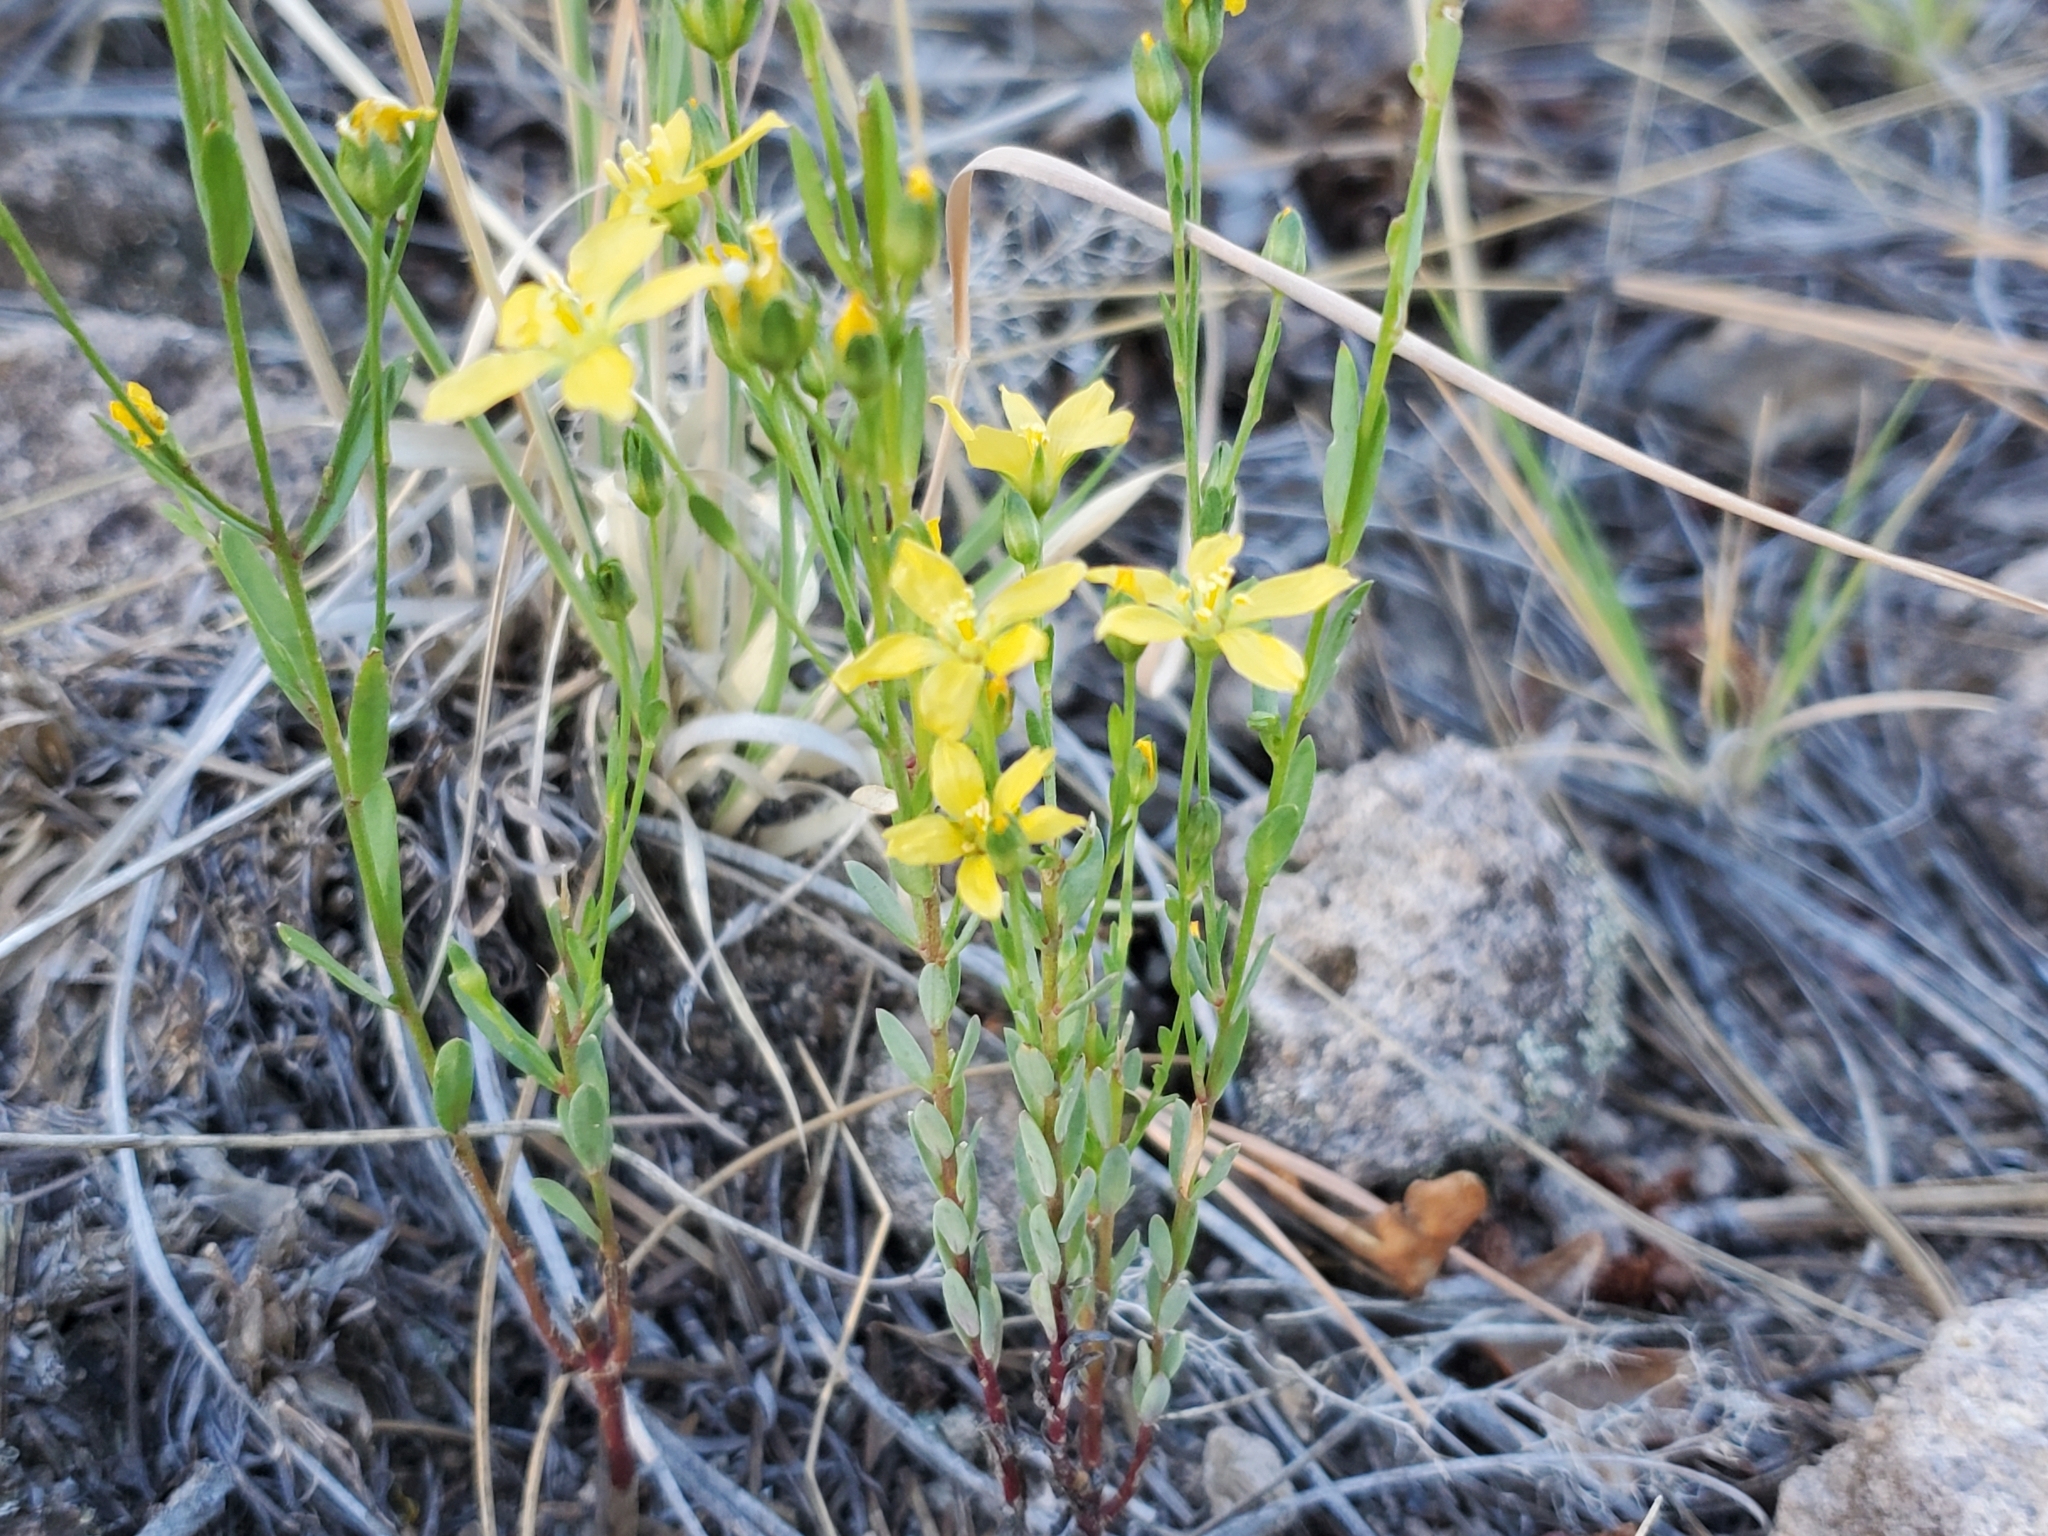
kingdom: Plantae
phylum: Tracheophyta
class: Magnoliopsida
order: Malpighiales
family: Linaceae
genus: Linum
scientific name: Linum neomexicanum
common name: New mexico yellow flax
